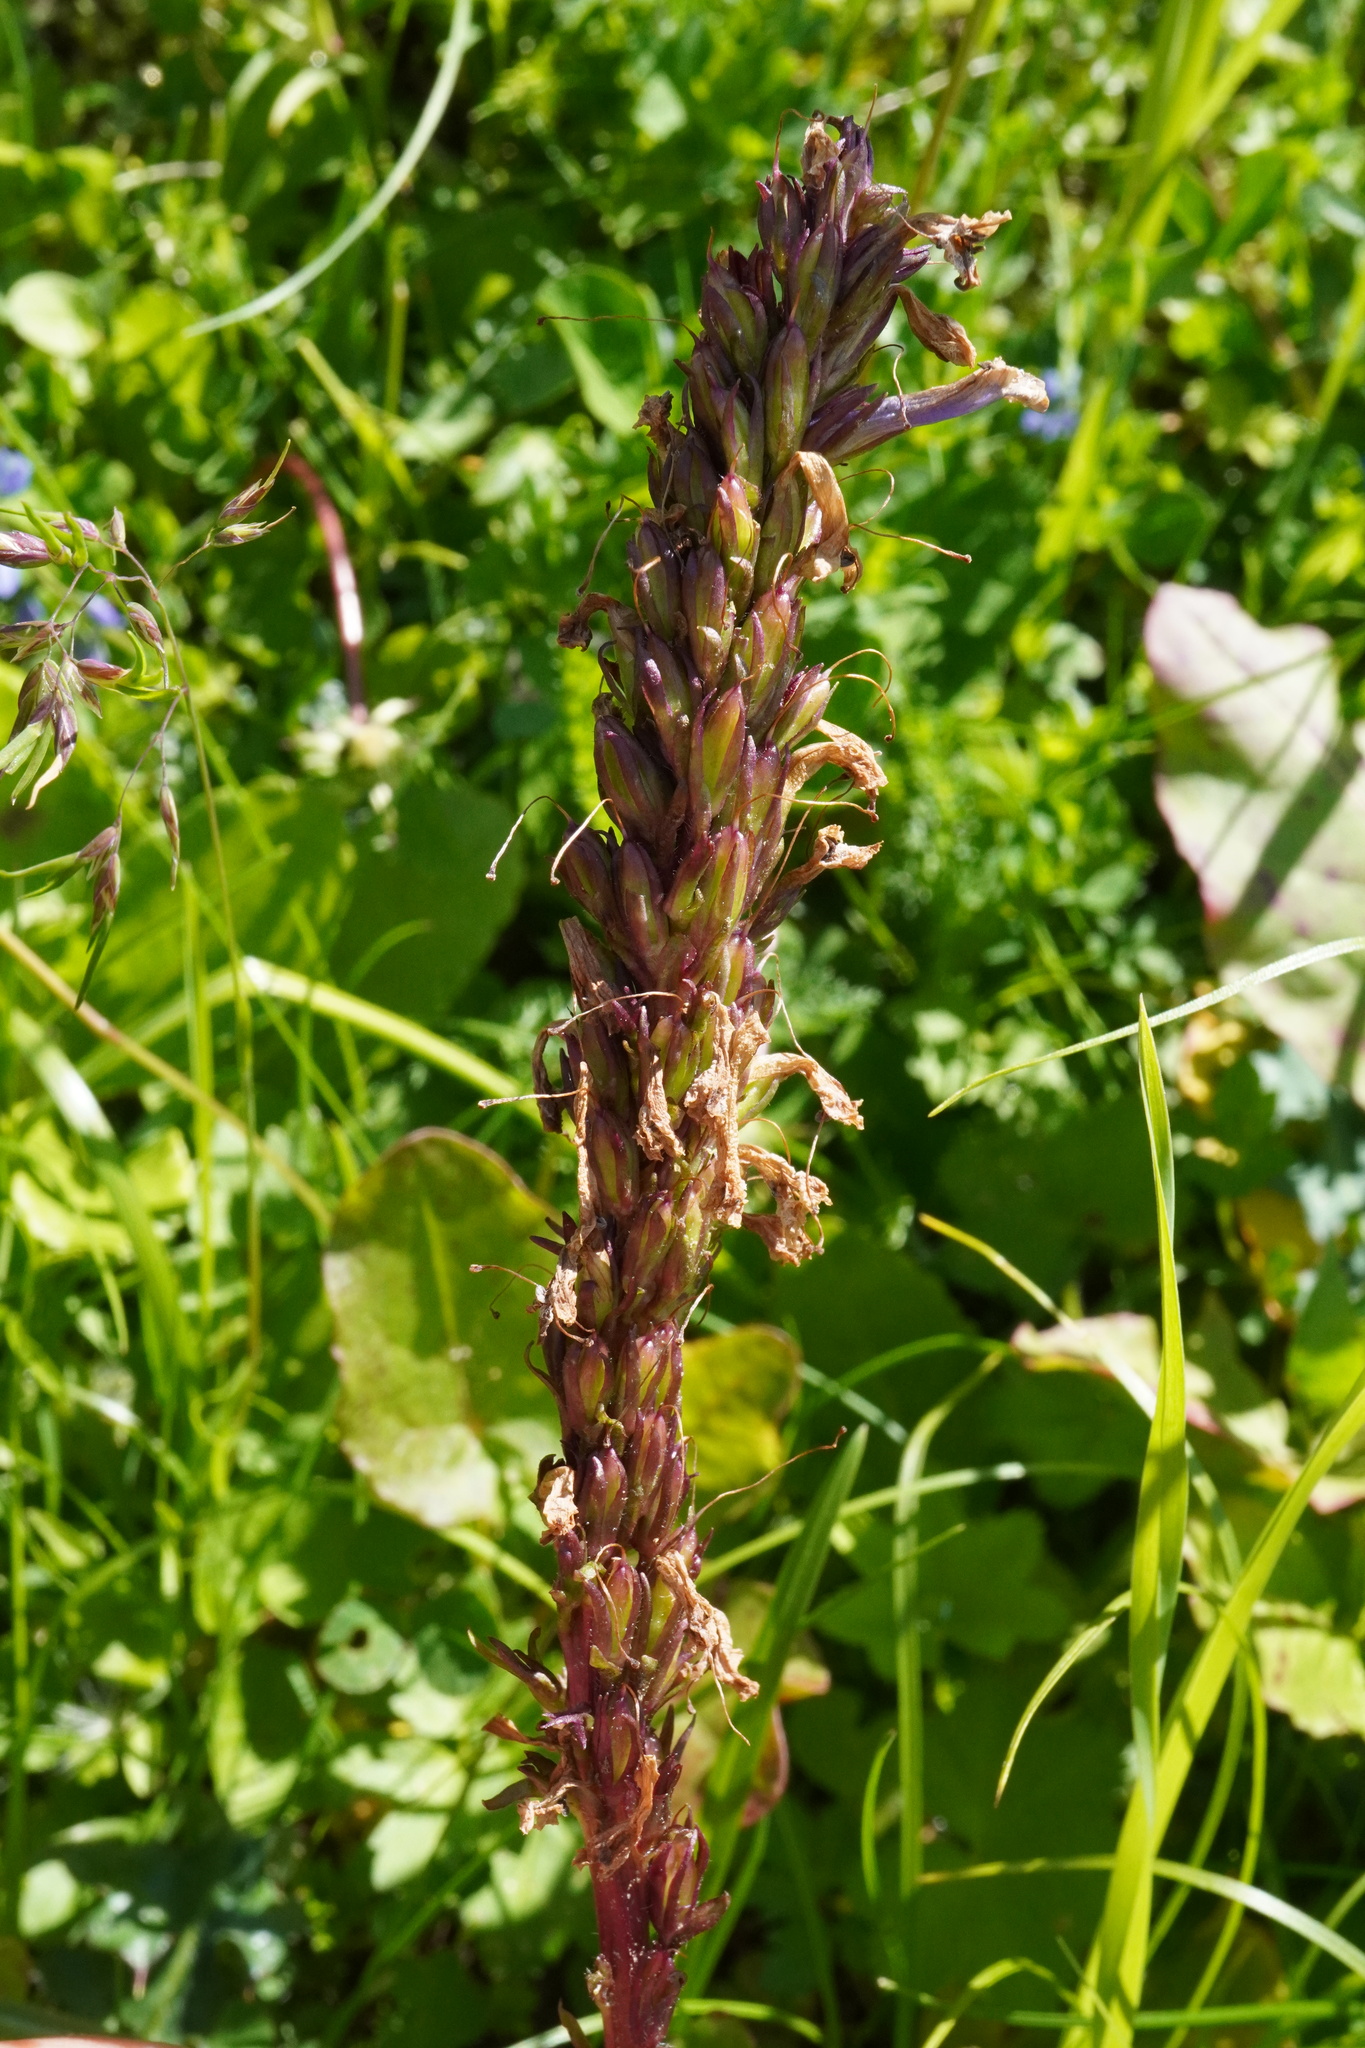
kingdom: Plantae
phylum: Tracheophyta
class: Magnoliopsida
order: Lamiales
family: Plantaginaceae
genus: Wulfenia
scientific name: Wulfenia carinthiaca
